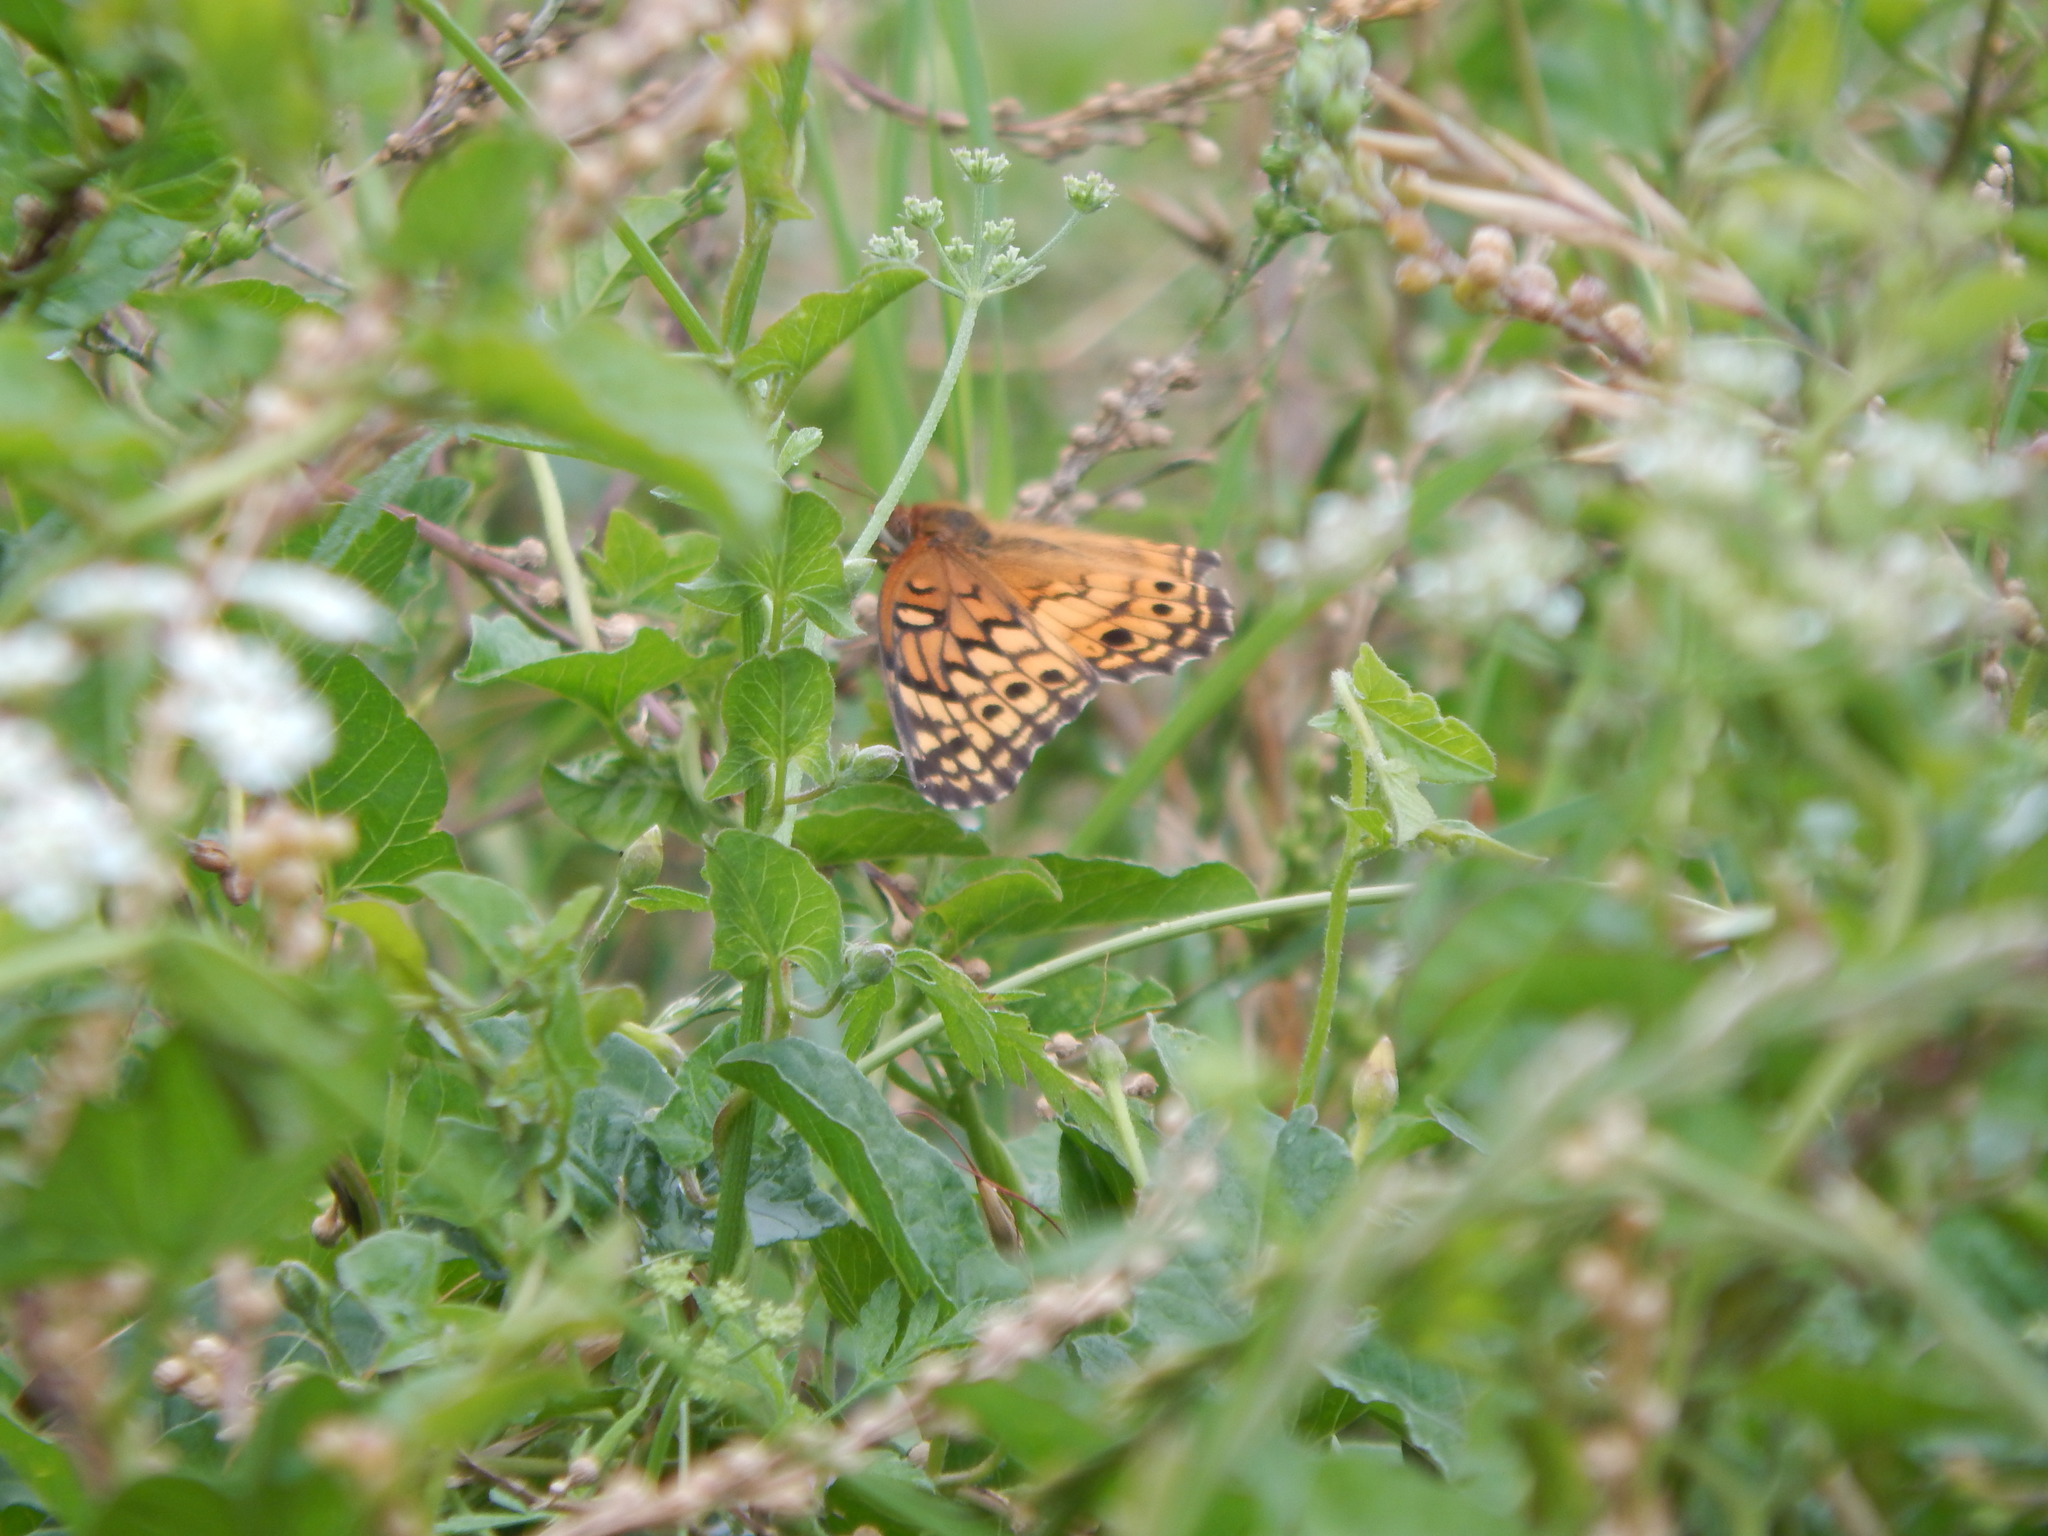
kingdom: Animalia
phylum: Arthropoda
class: Insecta
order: Lepidoptera
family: Nymphalidae
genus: Euptoieta
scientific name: Euptoieta claudia
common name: Variegated fritillary
